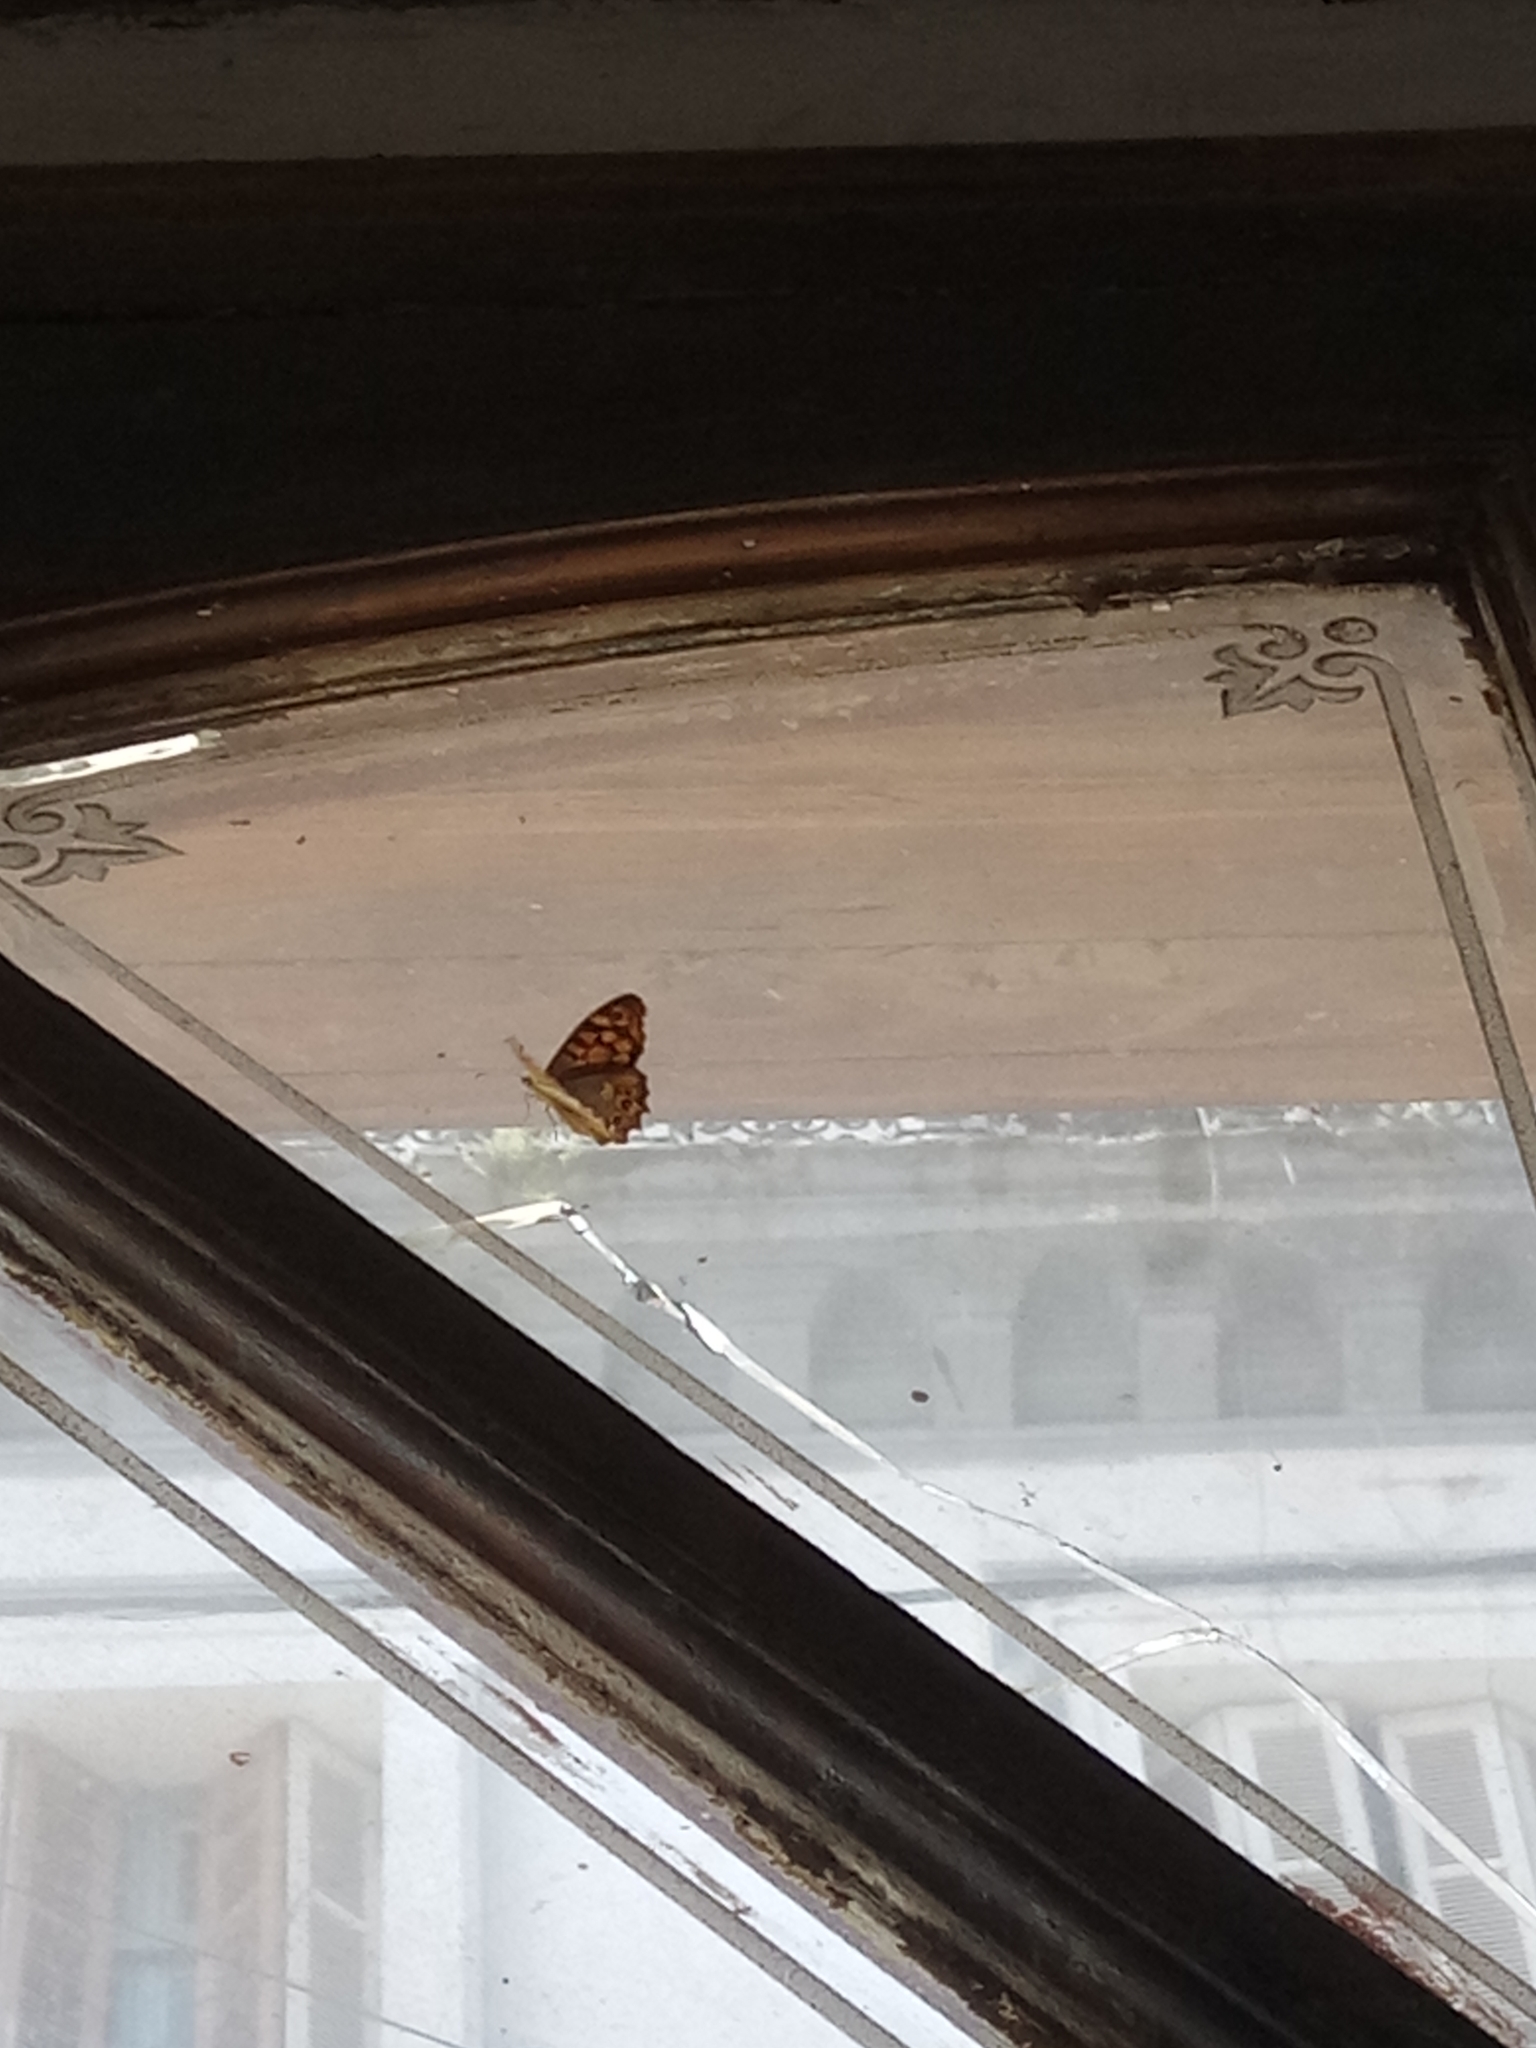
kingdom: Animalia
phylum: Arthropoda
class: Insecta
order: Lepidoptera
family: Nymphalidae
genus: Pararge
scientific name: Pararge aegeria
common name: Speckled wood
